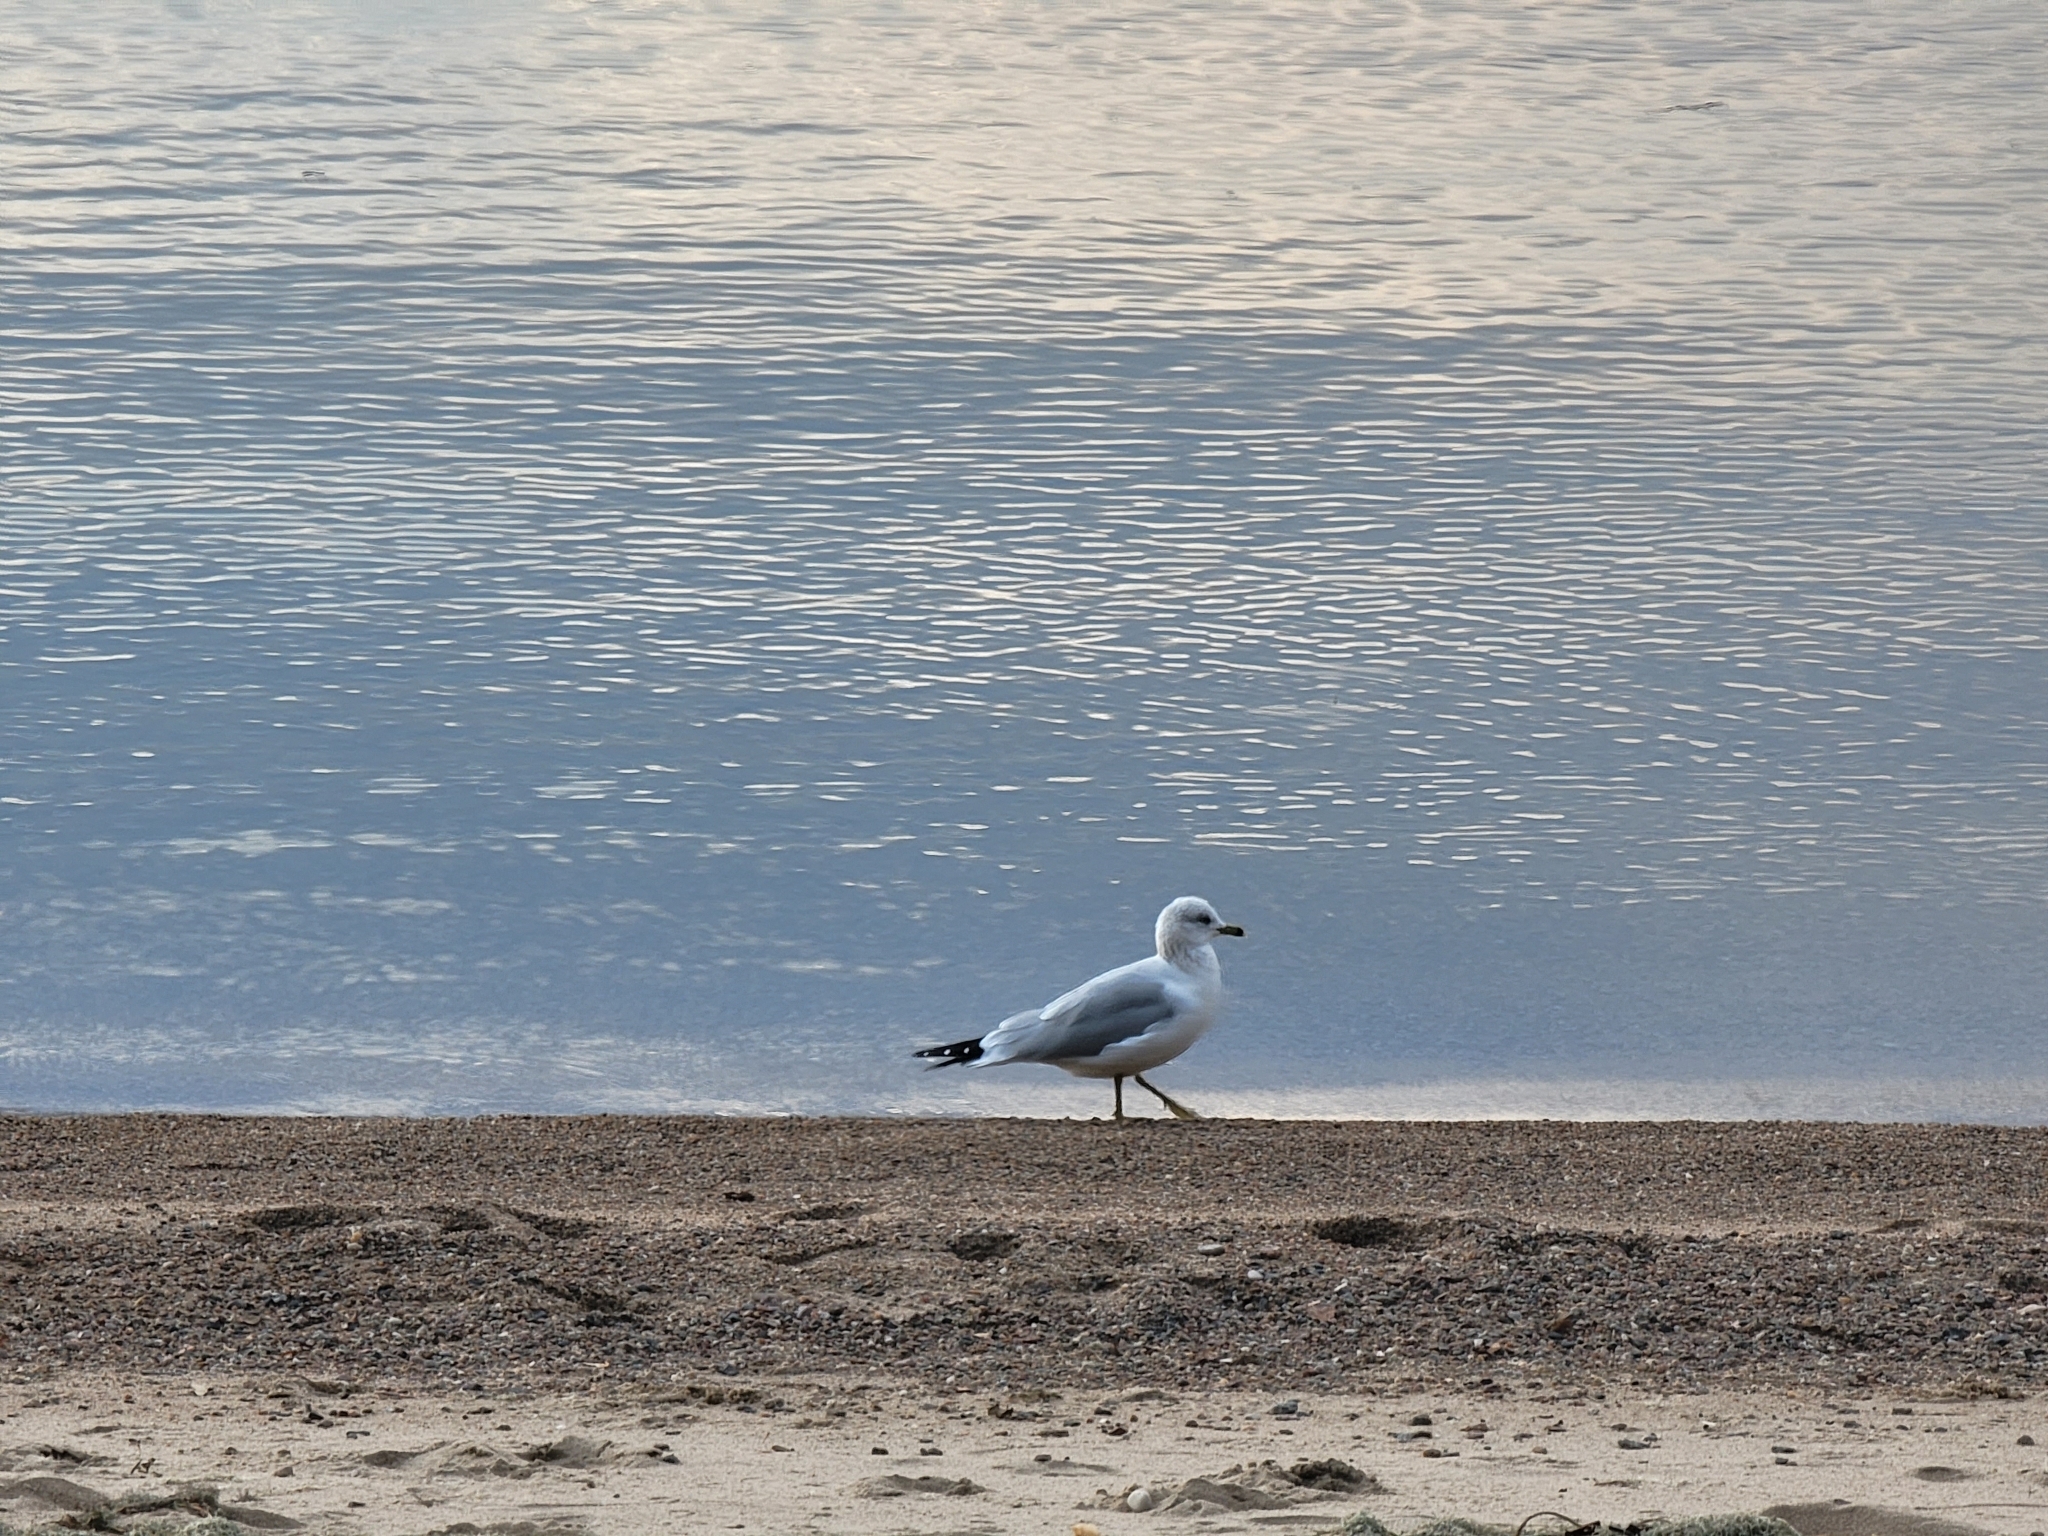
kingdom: Animalia
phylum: Chordata
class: Aves
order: Charadriiformes
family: Laridae
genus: Larus
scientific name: Larus delawarensis
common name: Ring-billed gull
